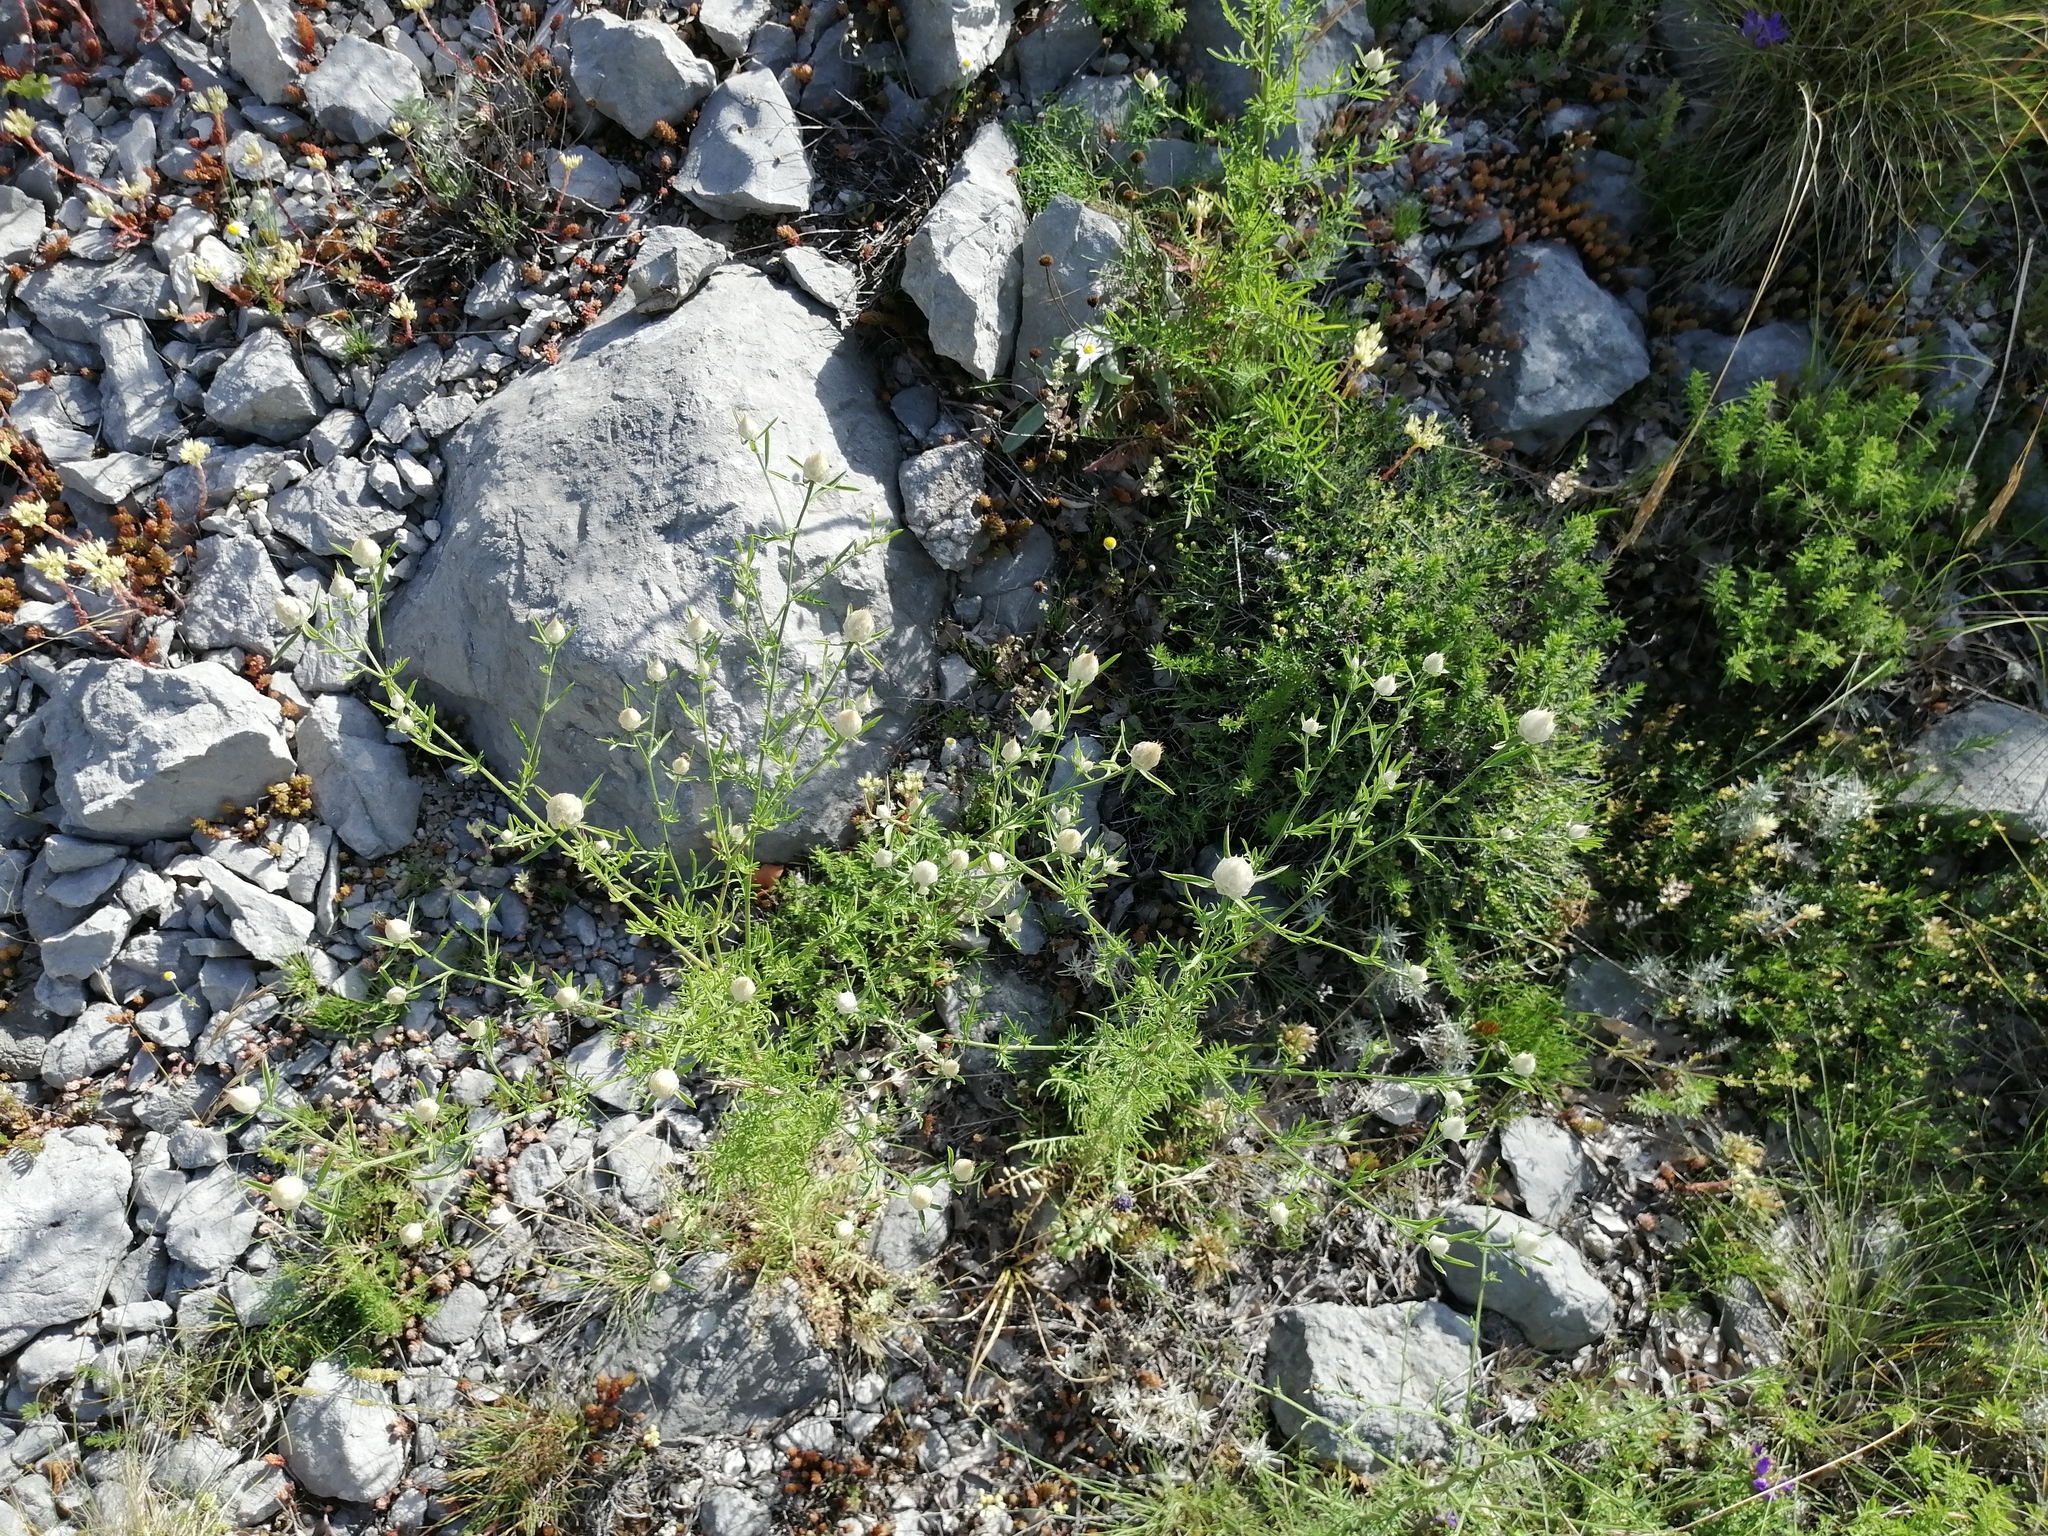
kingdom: Plantae
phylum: Tracheophyta
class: Magnoliopsida
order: Asterales
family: Asteraceae
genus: Centaurea
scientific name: Centaurea deusta
